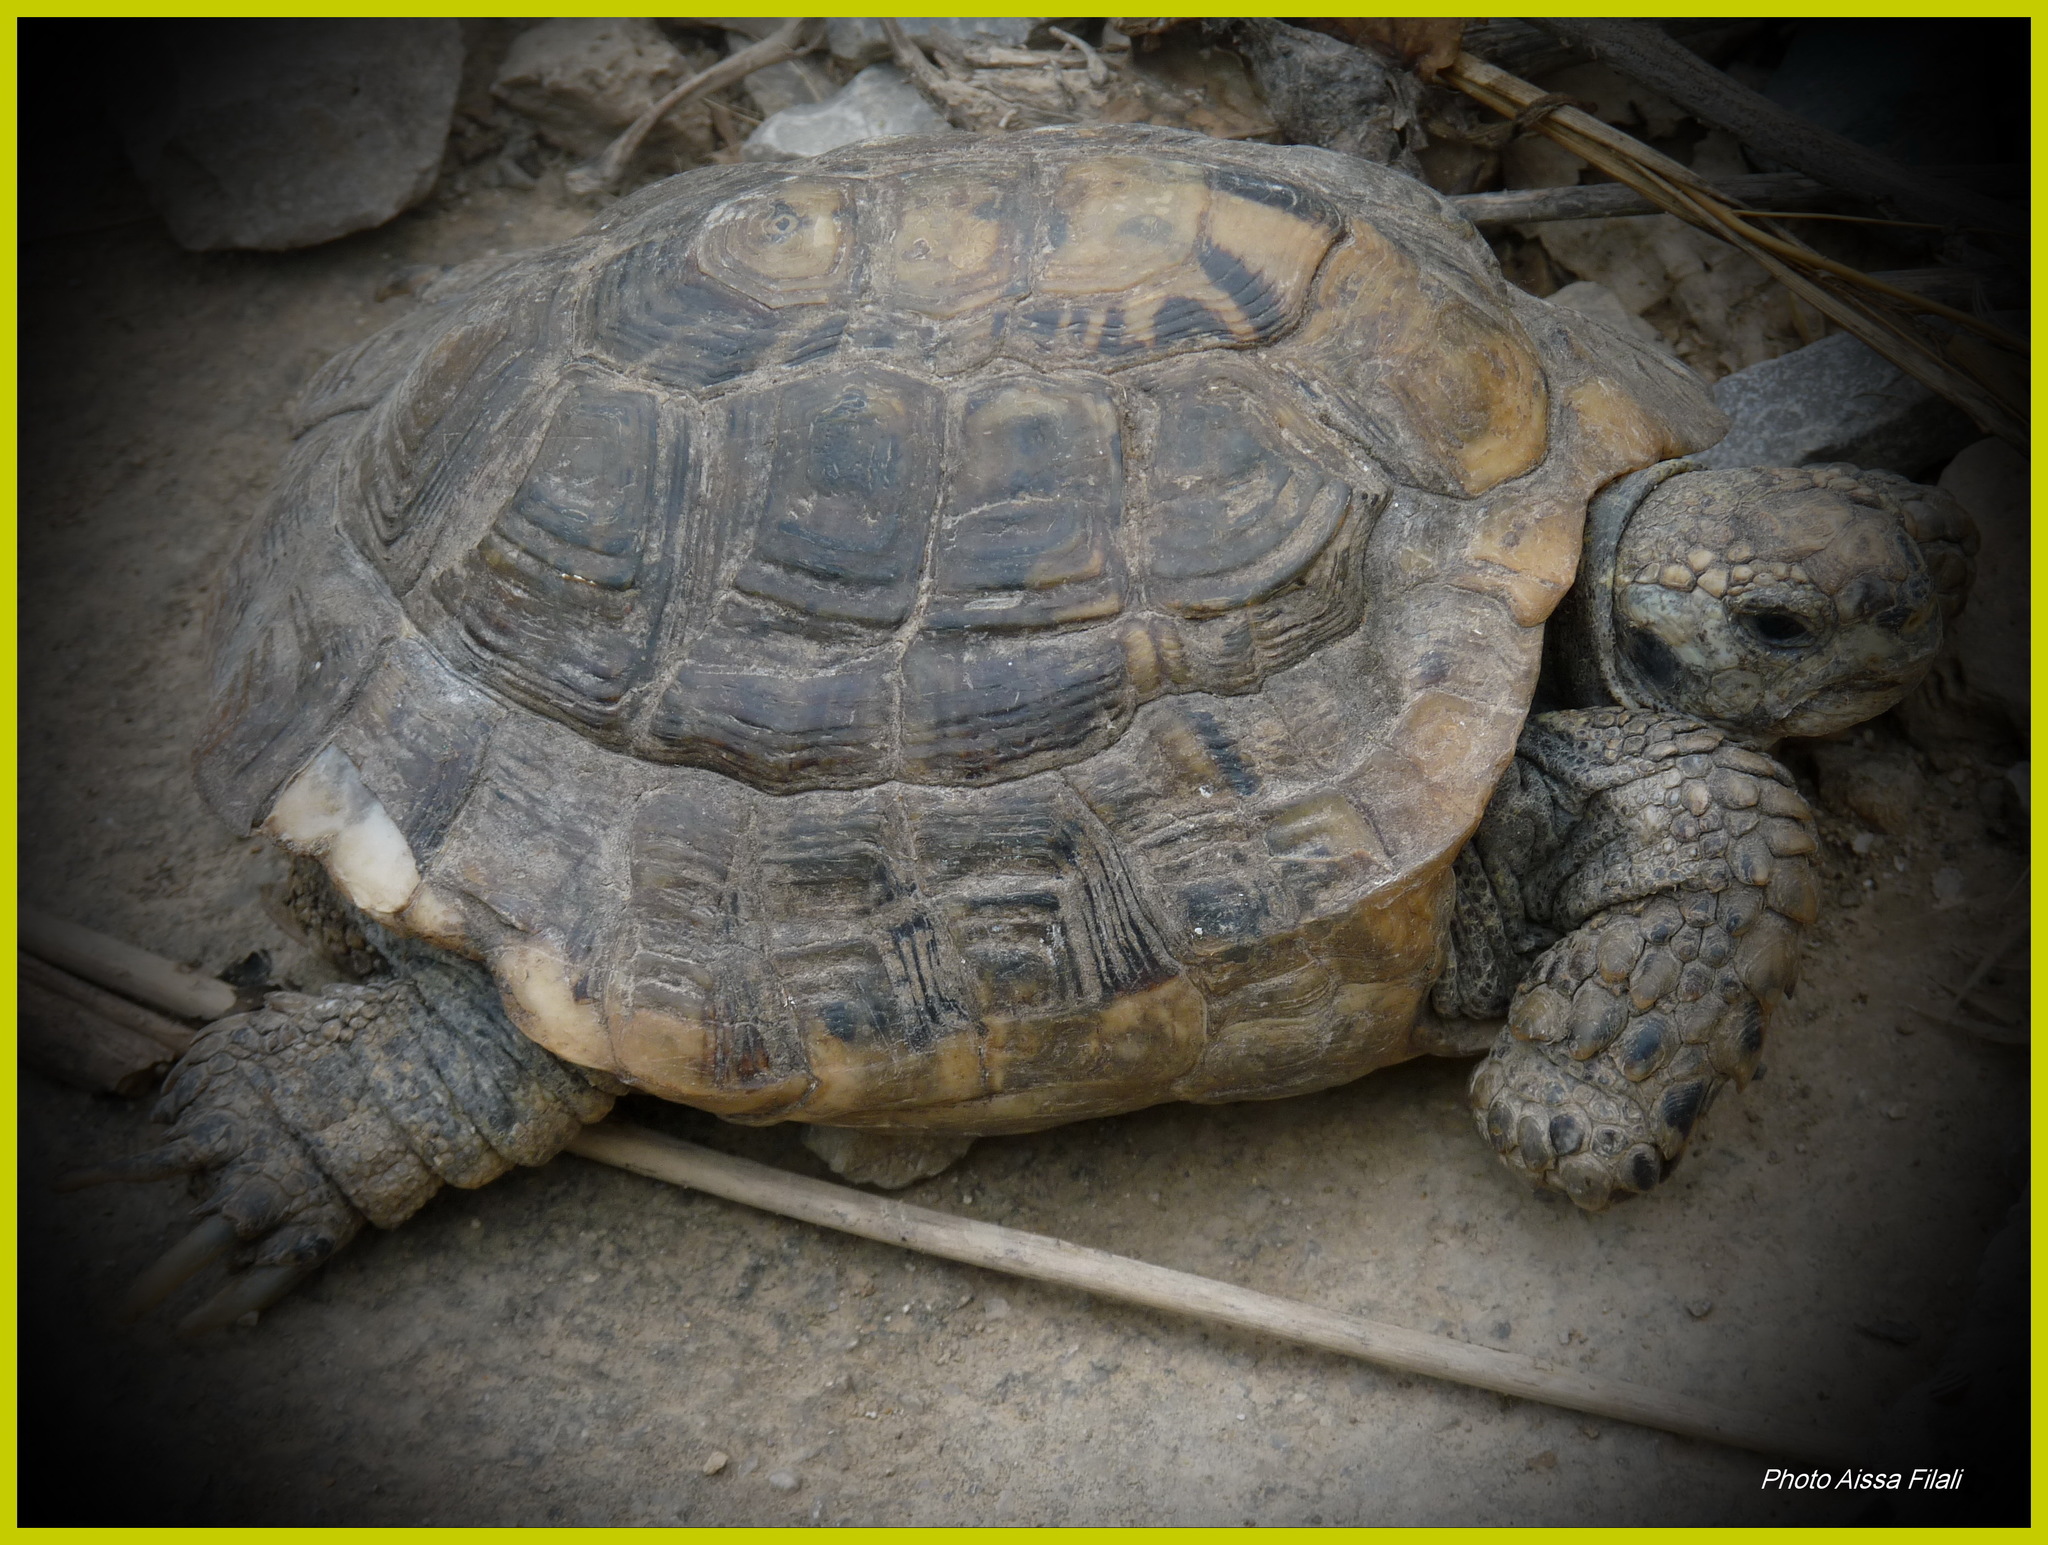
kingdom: Animalia
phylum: Chordata
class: Testudines
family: Testudinidae
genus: Testudo
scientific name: Testudo graeca
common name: Common tortoise
